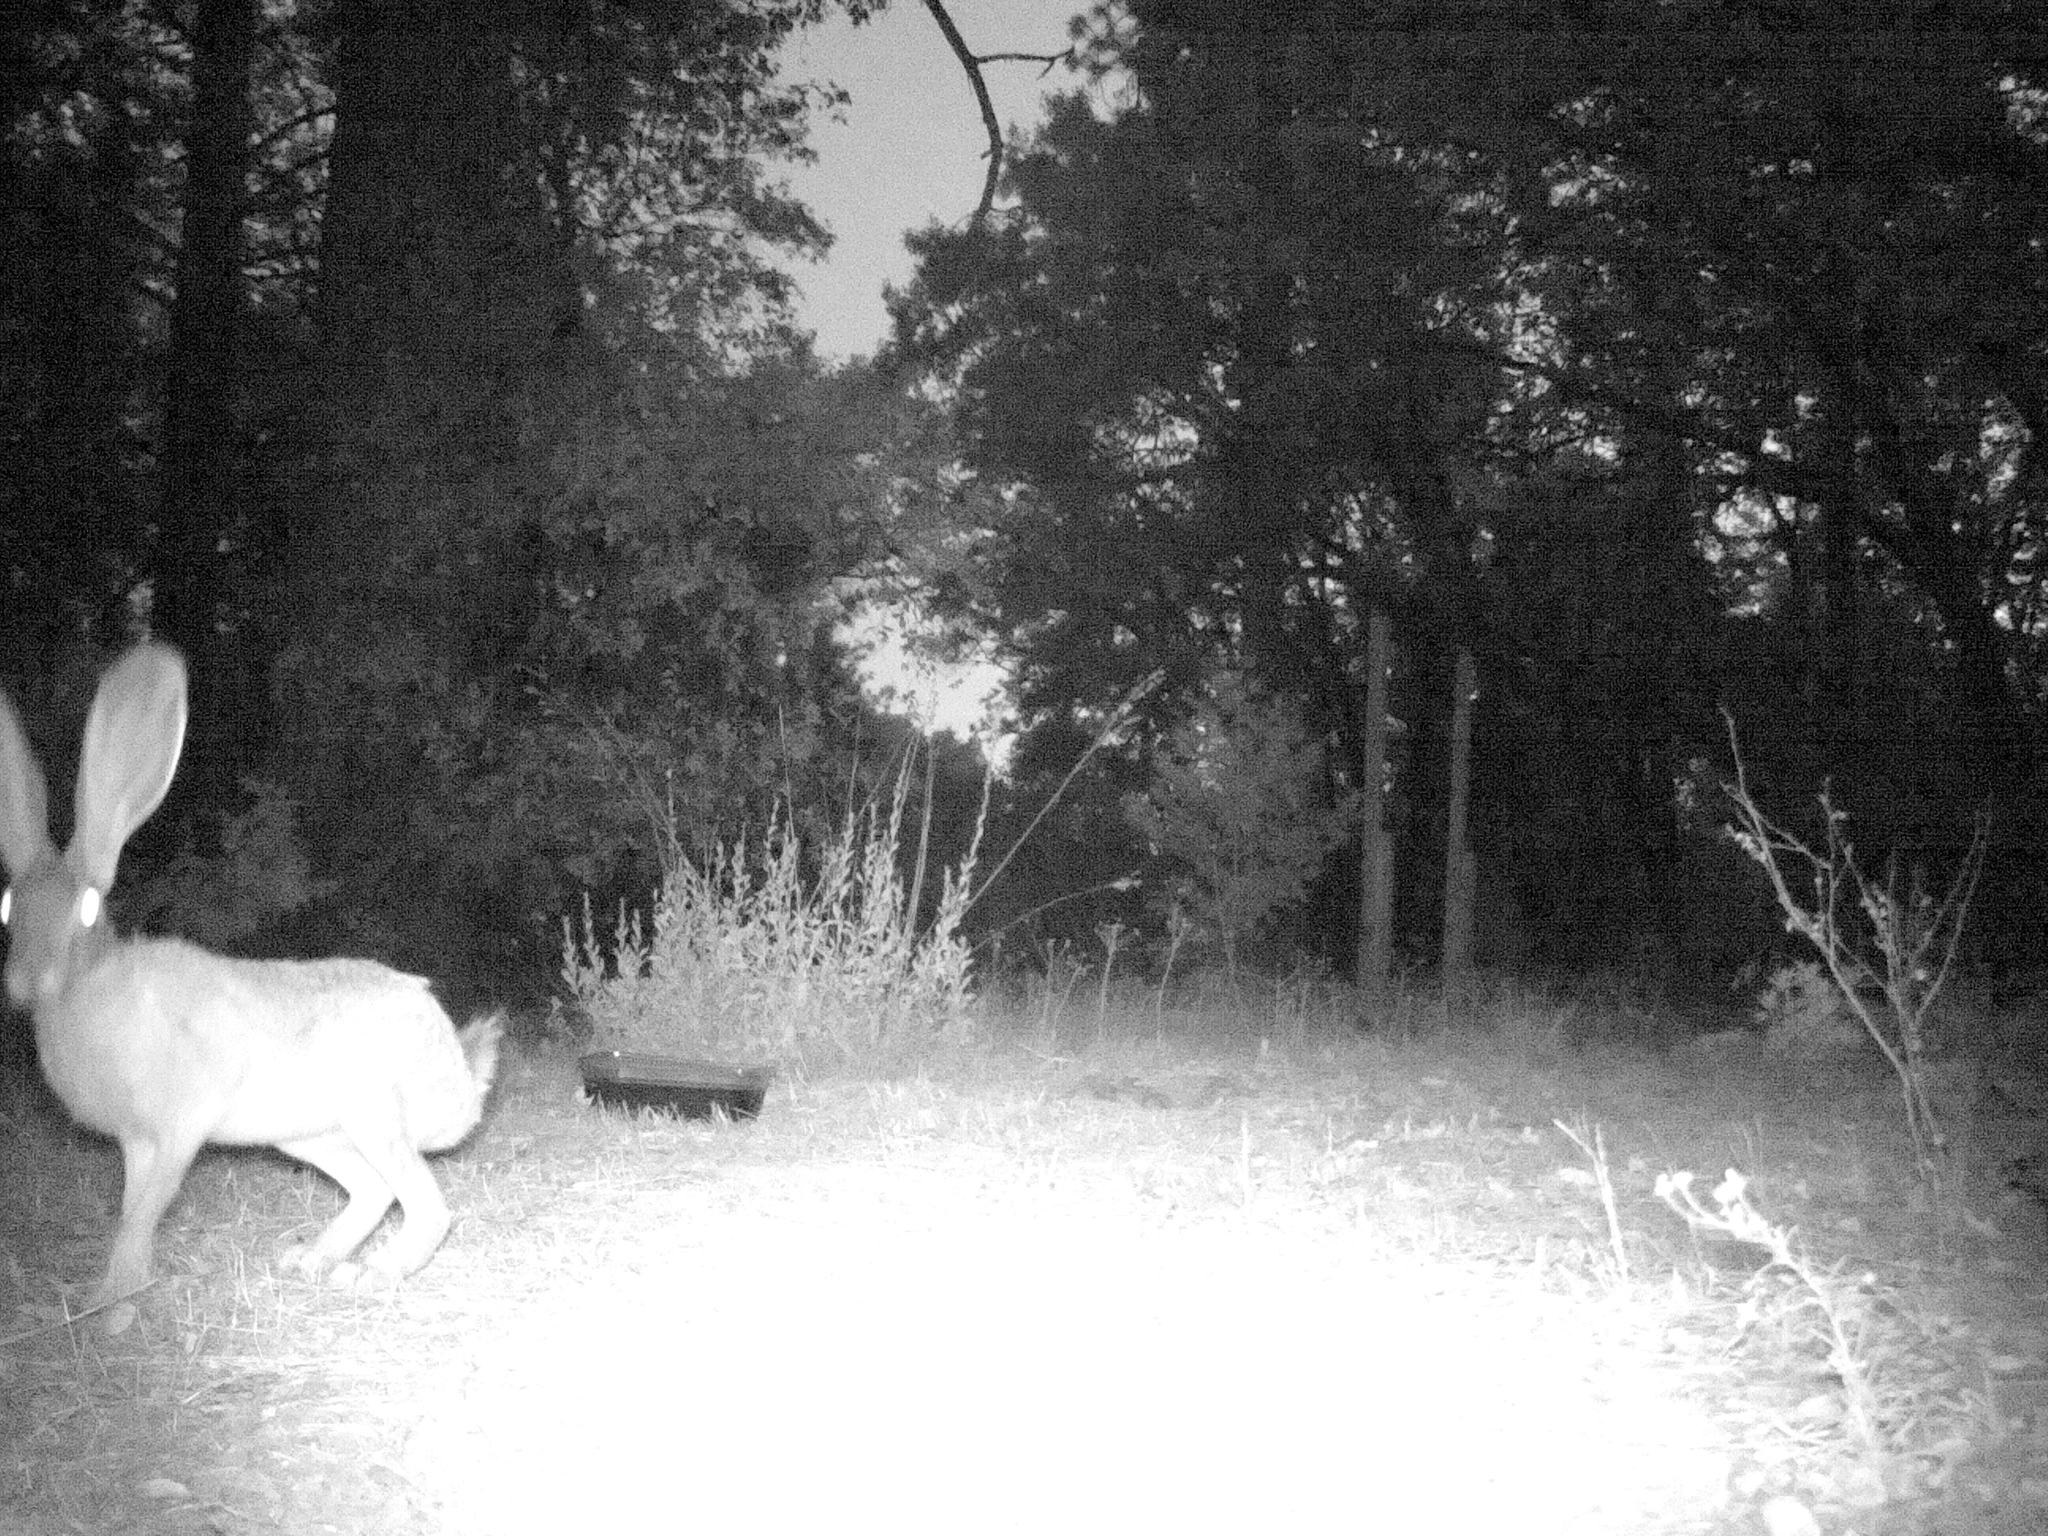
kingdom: Animalia
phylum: Chordata
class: Mammalia
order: Lagomorpha
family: Leporidae
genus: Lepus
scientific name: Lepus californicus
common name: Black-tailed jackrabbit
